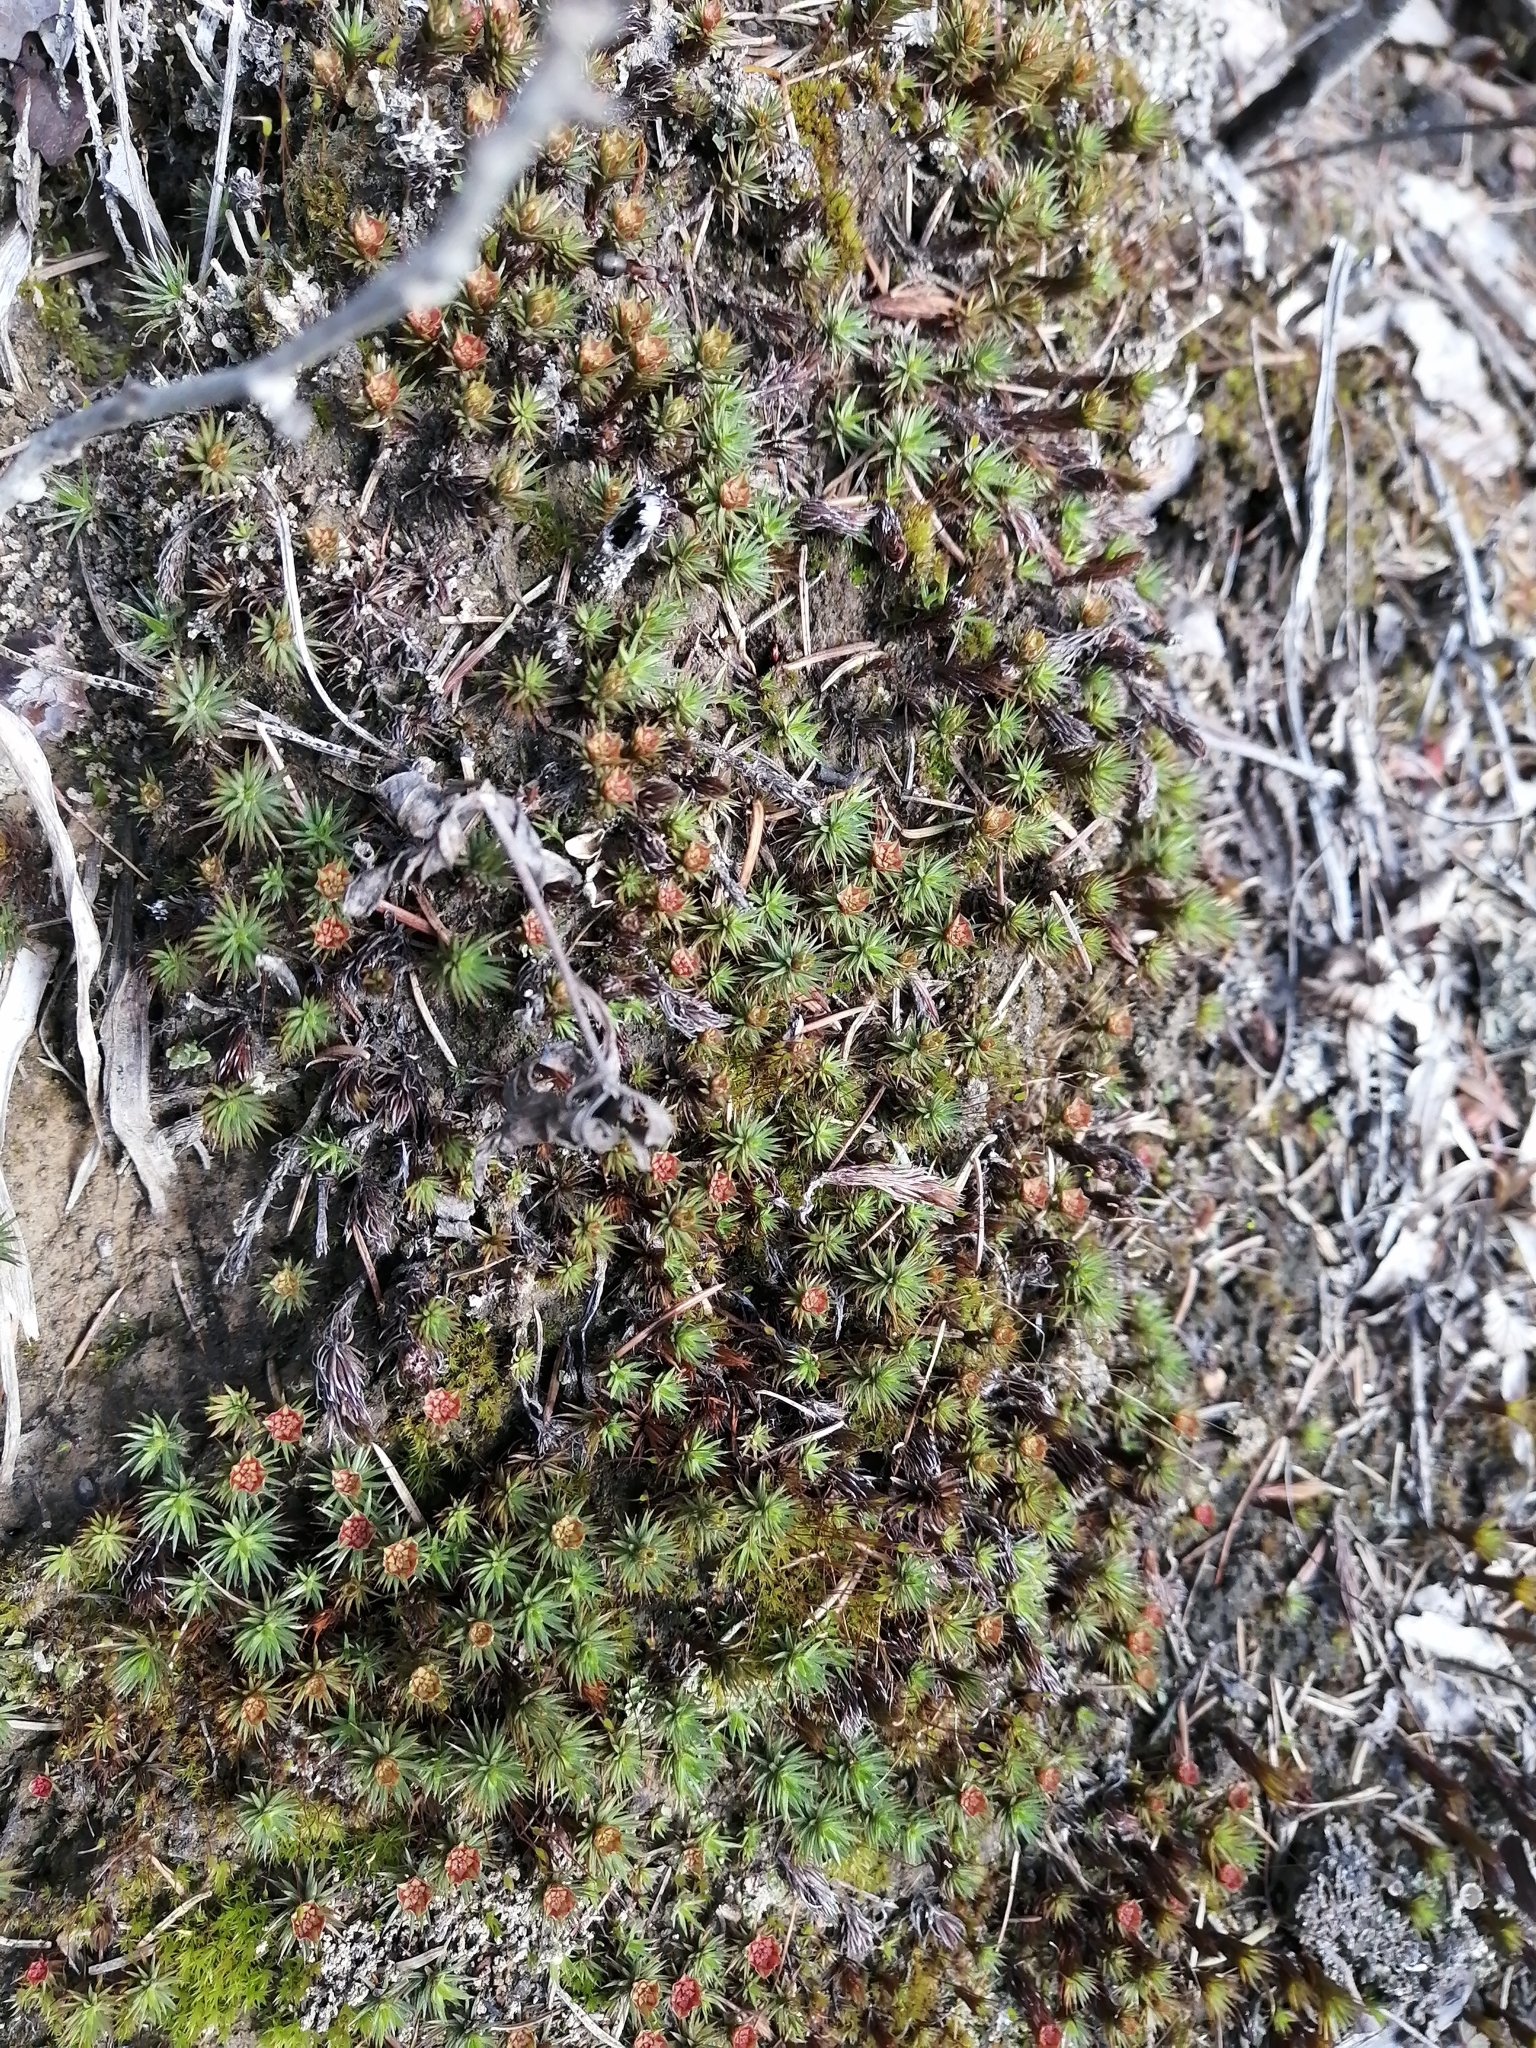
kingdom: Plantae
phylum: Bryophyta
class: Polytrichopsida
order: Polytrichales
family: Polytrichaceae
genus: Polytrichum
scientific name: Polytrichum juniperinum
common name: Juniper haircap moss
